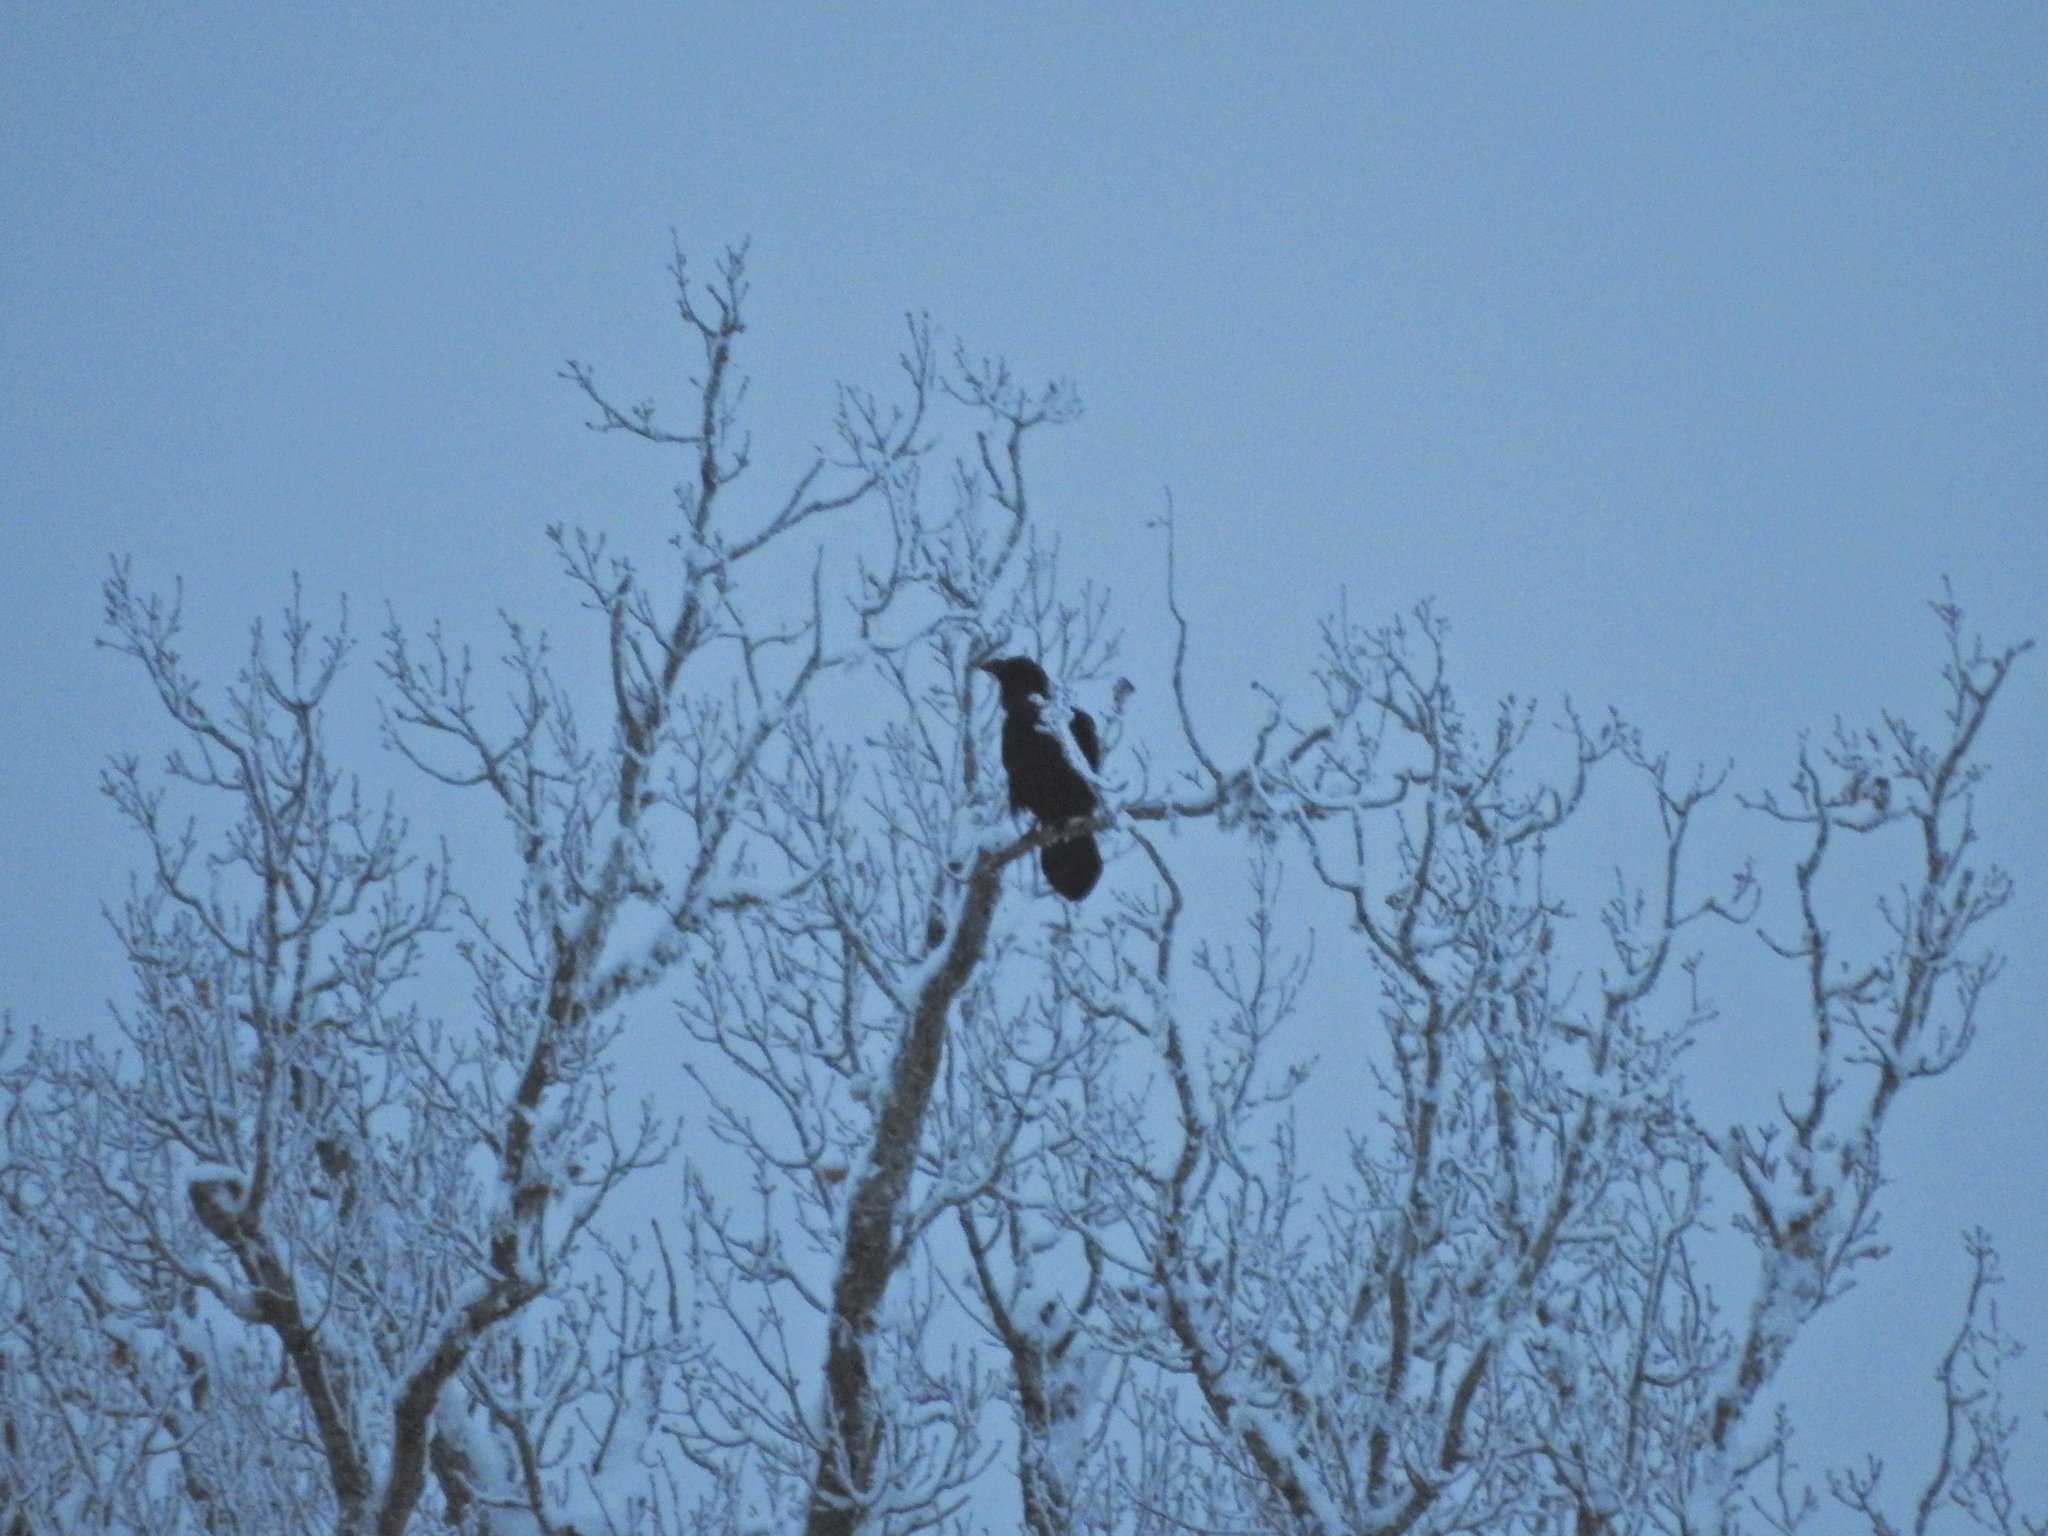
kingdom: Animalia
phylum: Chordata
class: Aves
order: Passeriformes
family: Corvidae
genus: Corvus
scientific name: Corvus corax
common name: Common raven
